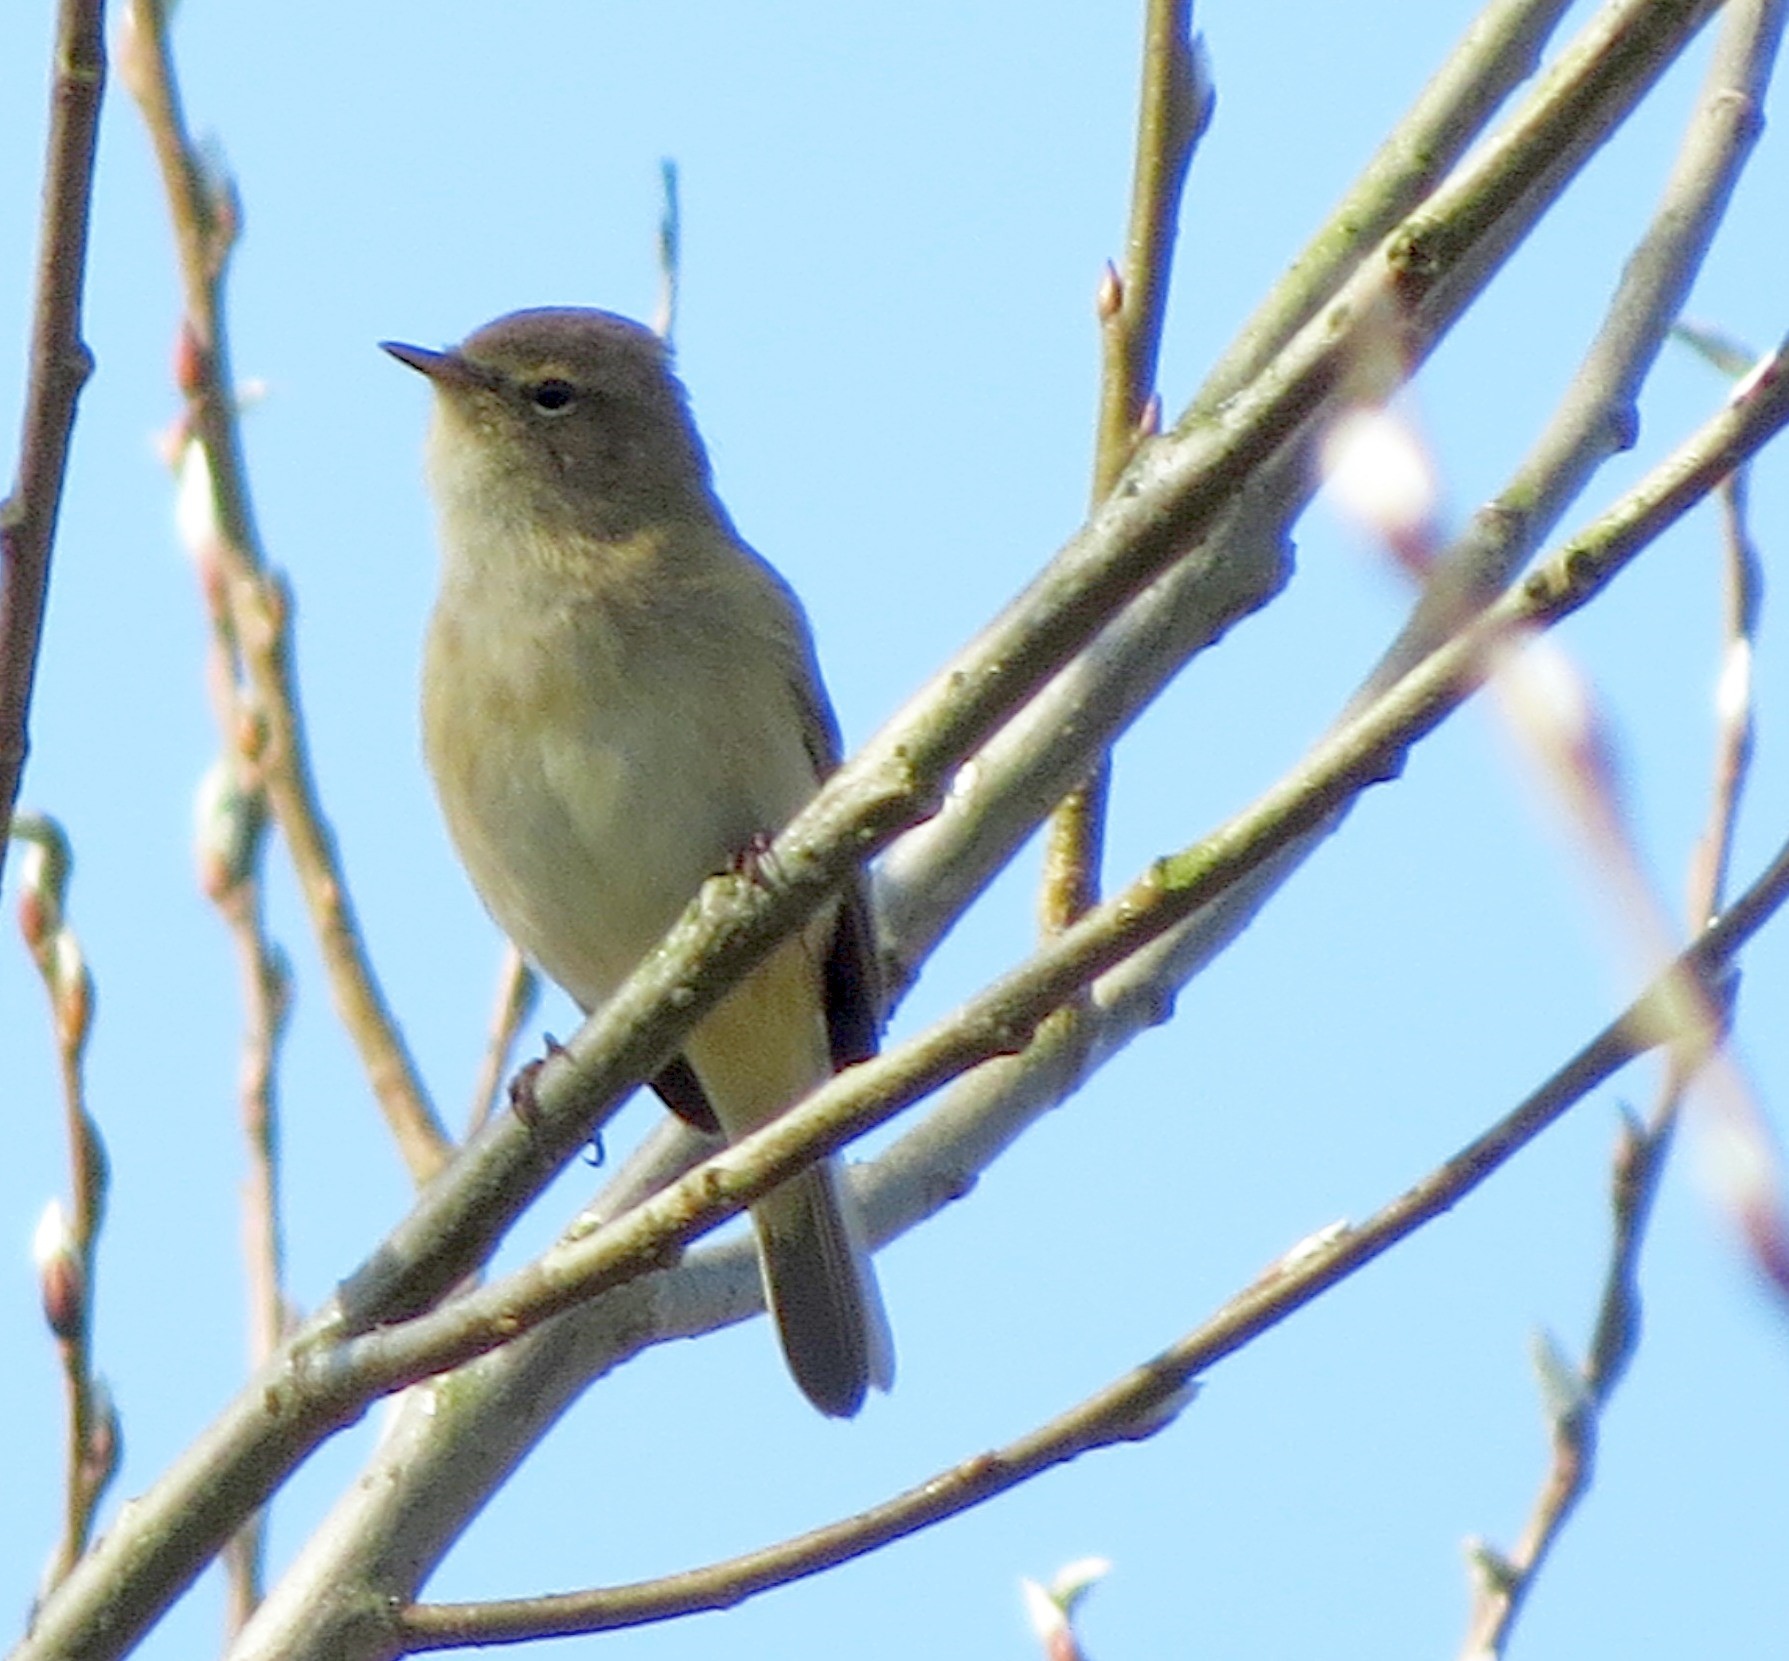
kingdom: Animalia
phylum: Chordata
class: Aves
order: Passeriformes
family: Phylloscopidae
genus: Phylloscopus
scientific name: Phylloscopus collybita
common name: Common chiffchaff
